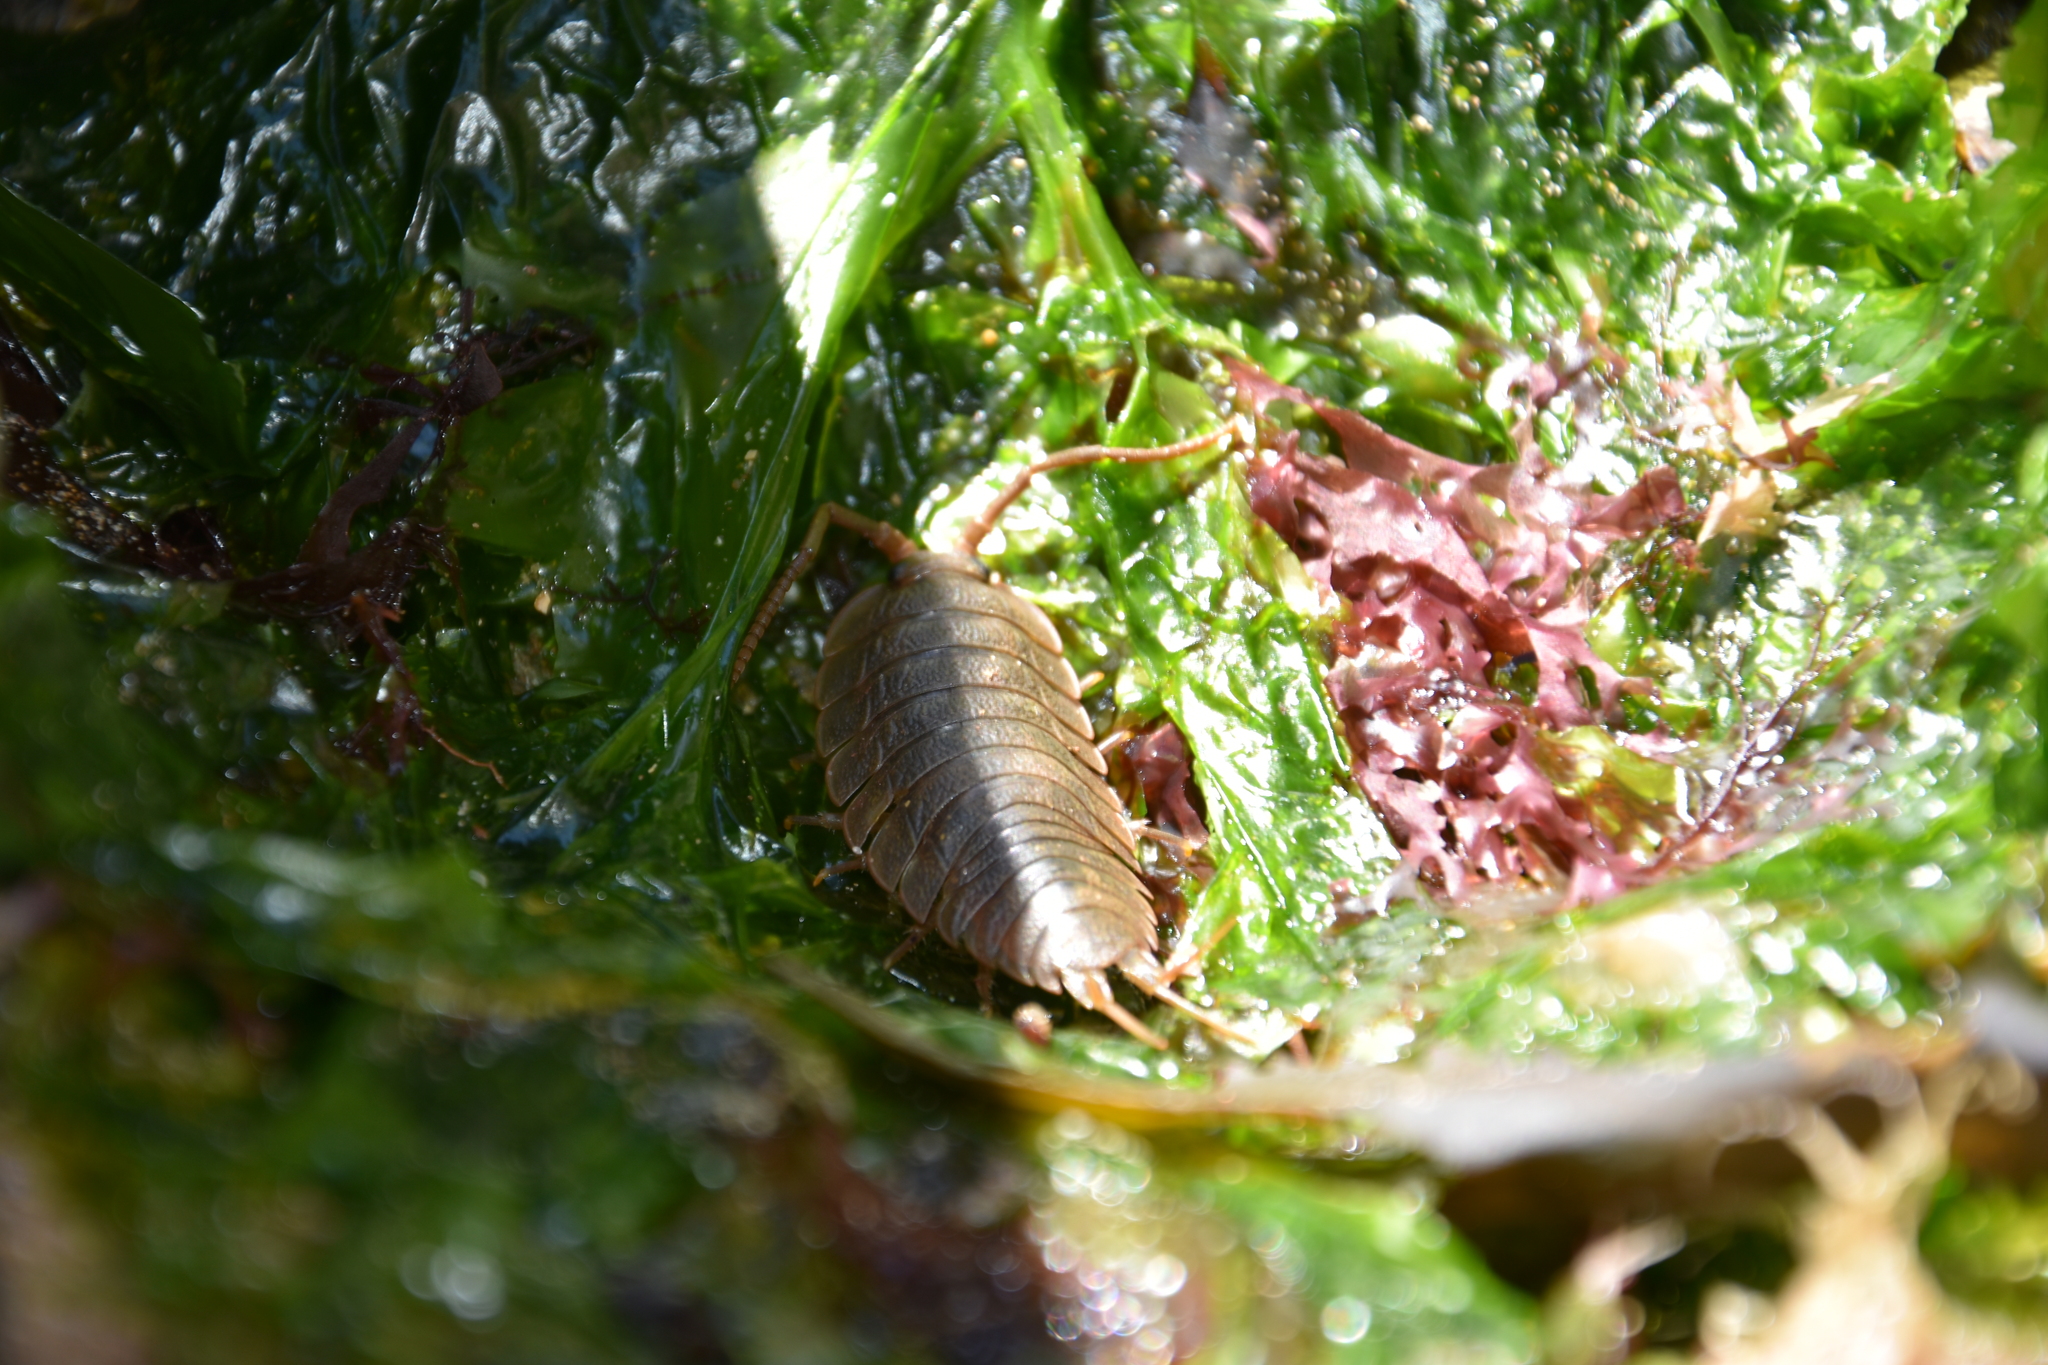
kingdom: Animalia
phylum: Arthropoda
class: Malacostraca
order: Isopoda
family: Ligiidae
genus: Ligia
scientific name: Ligia oceanica
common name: Sea slater
